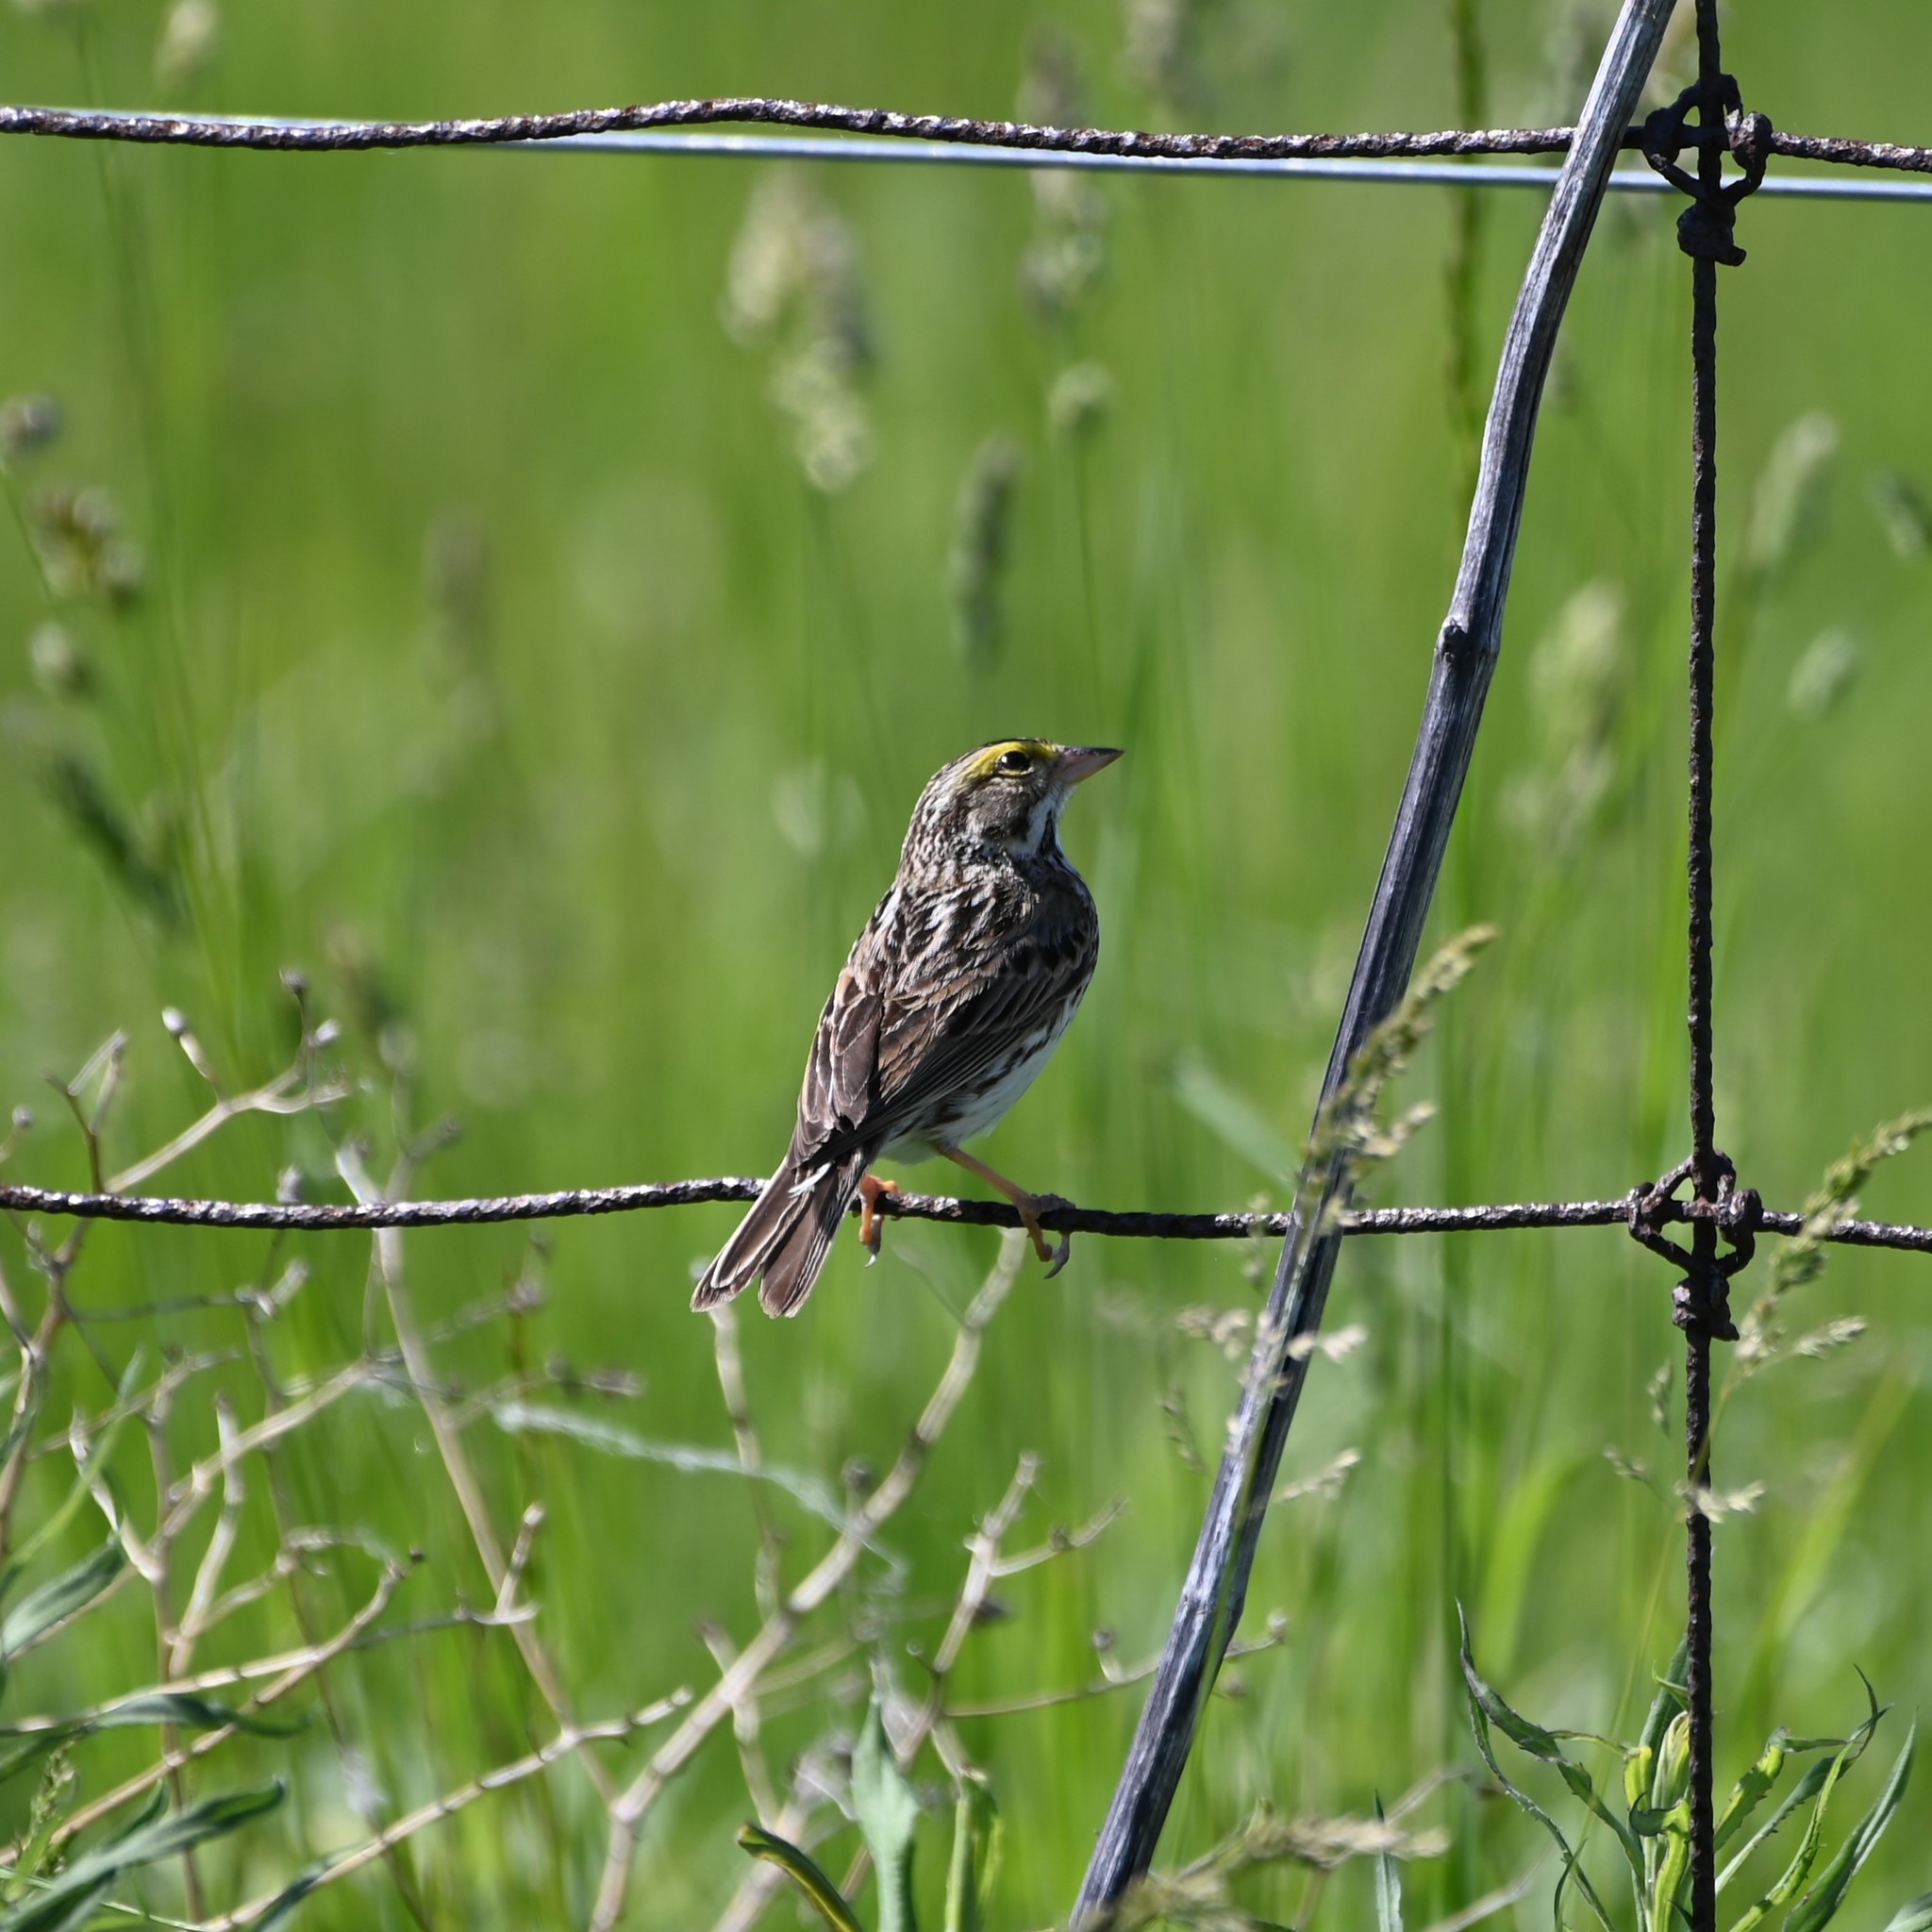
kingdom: Animalia
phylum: Chordata
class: Aves
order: Passeriformes
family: Passerellidae
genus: Passerculus
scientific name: Passerculus sandwichensis
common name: Savannah sparrow
